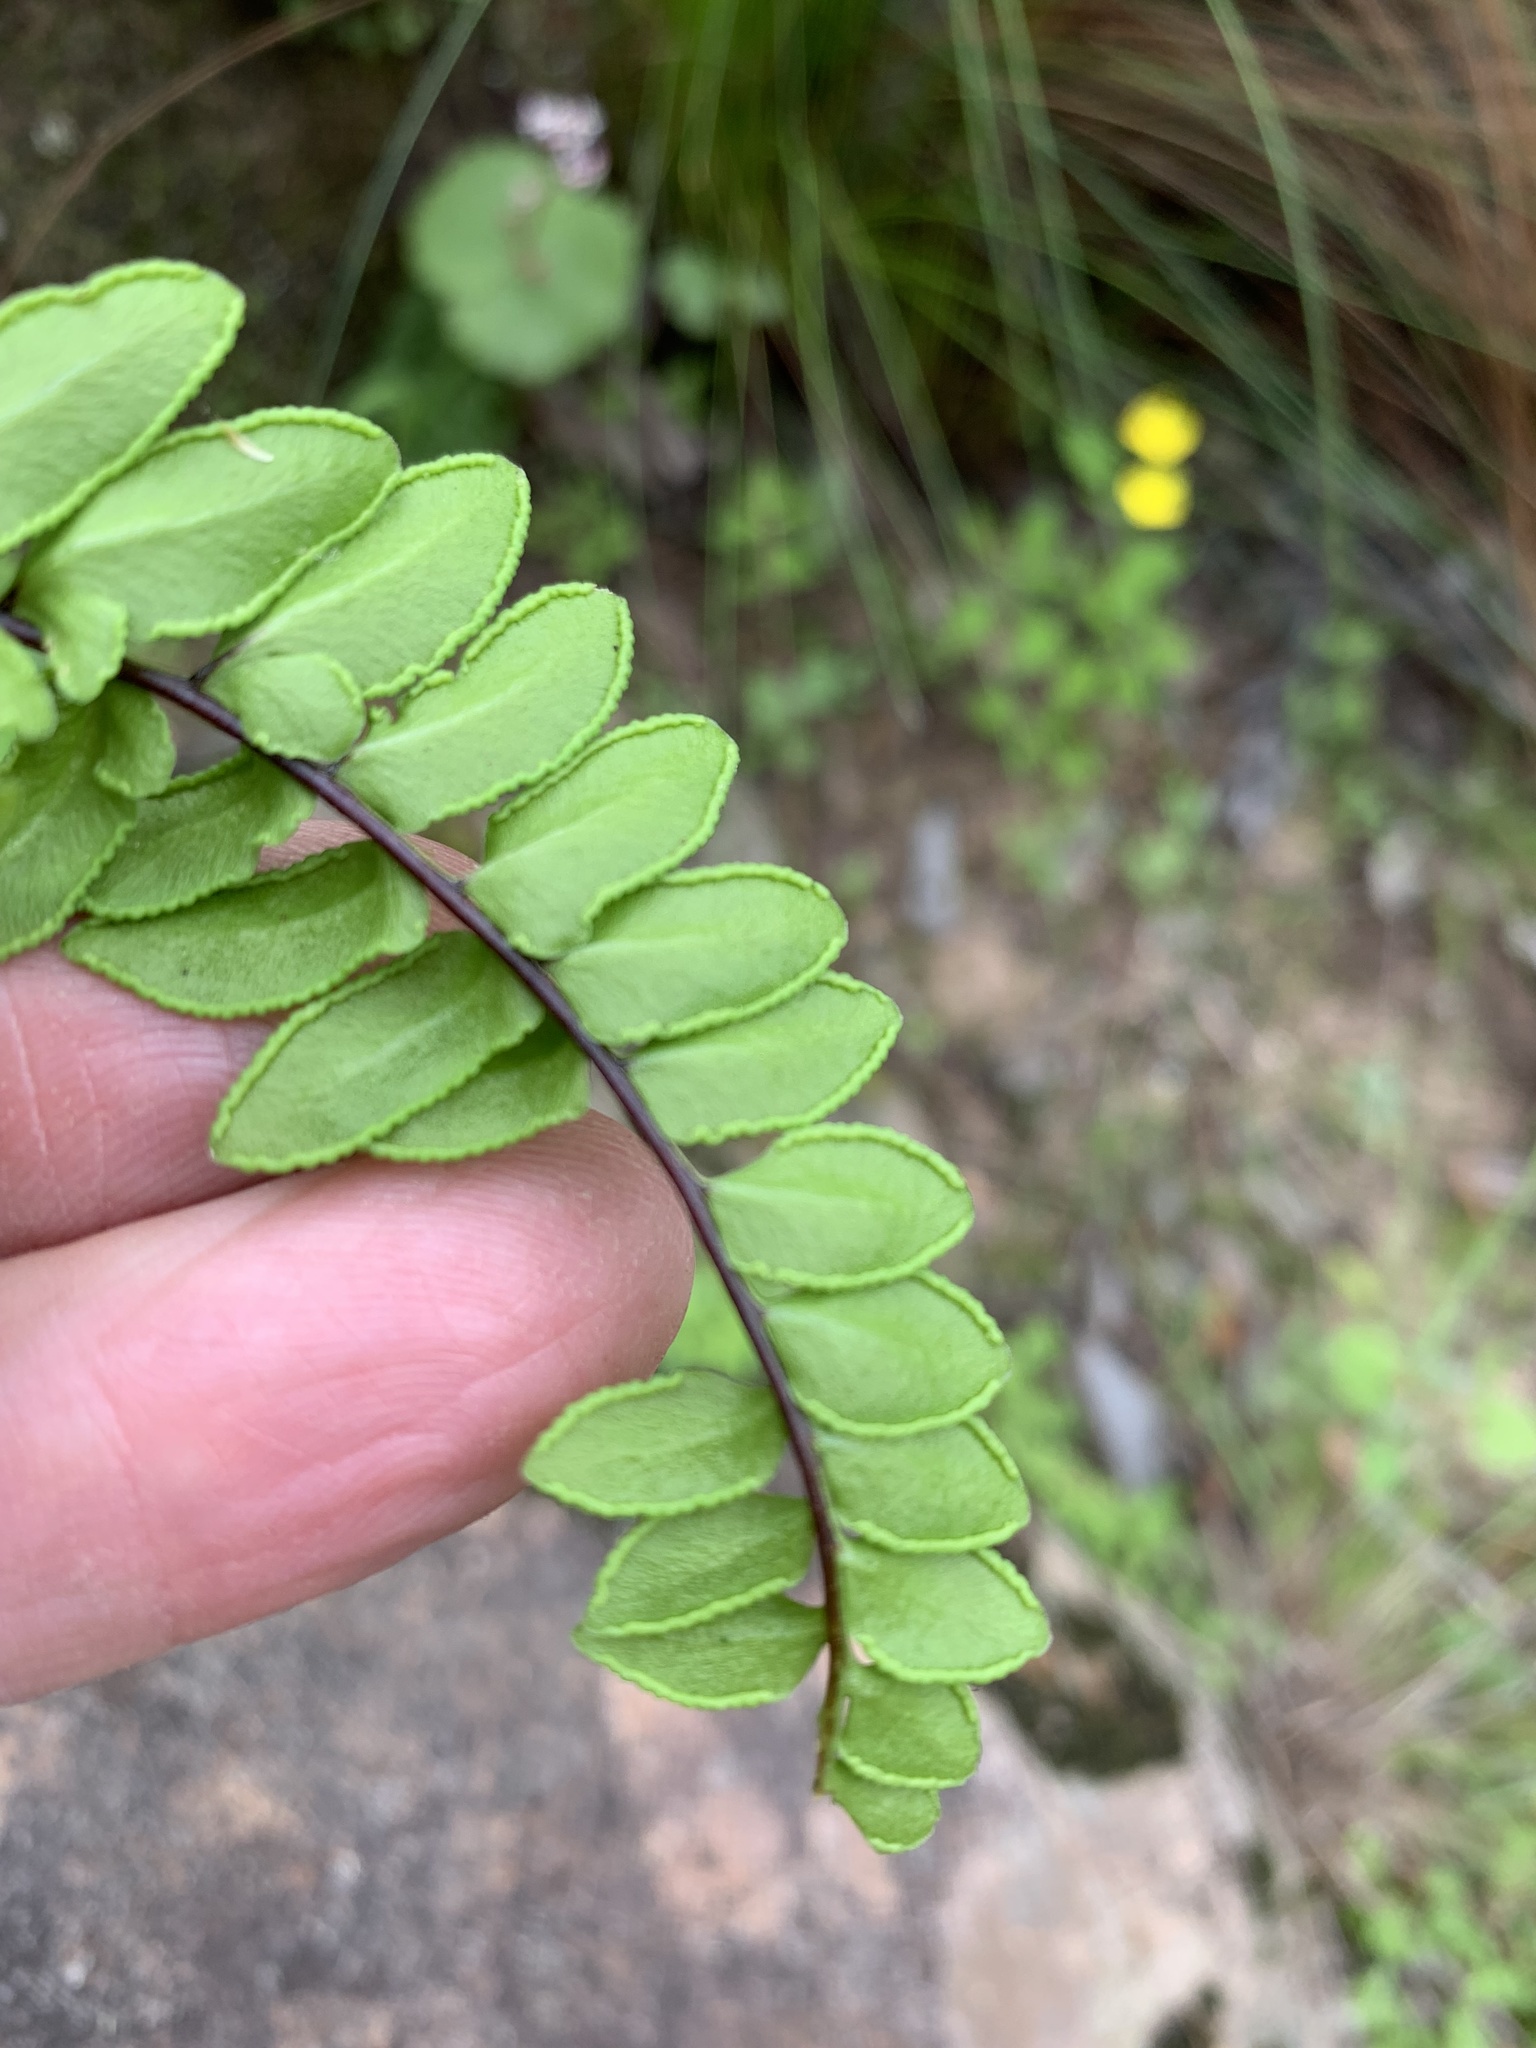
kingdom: Plantae
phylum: Tracheophyta
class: Polypodiopsida
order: Polypodiales
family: Pteridaceae
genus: Cheilanthes
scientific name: Cheilanthes hastata
